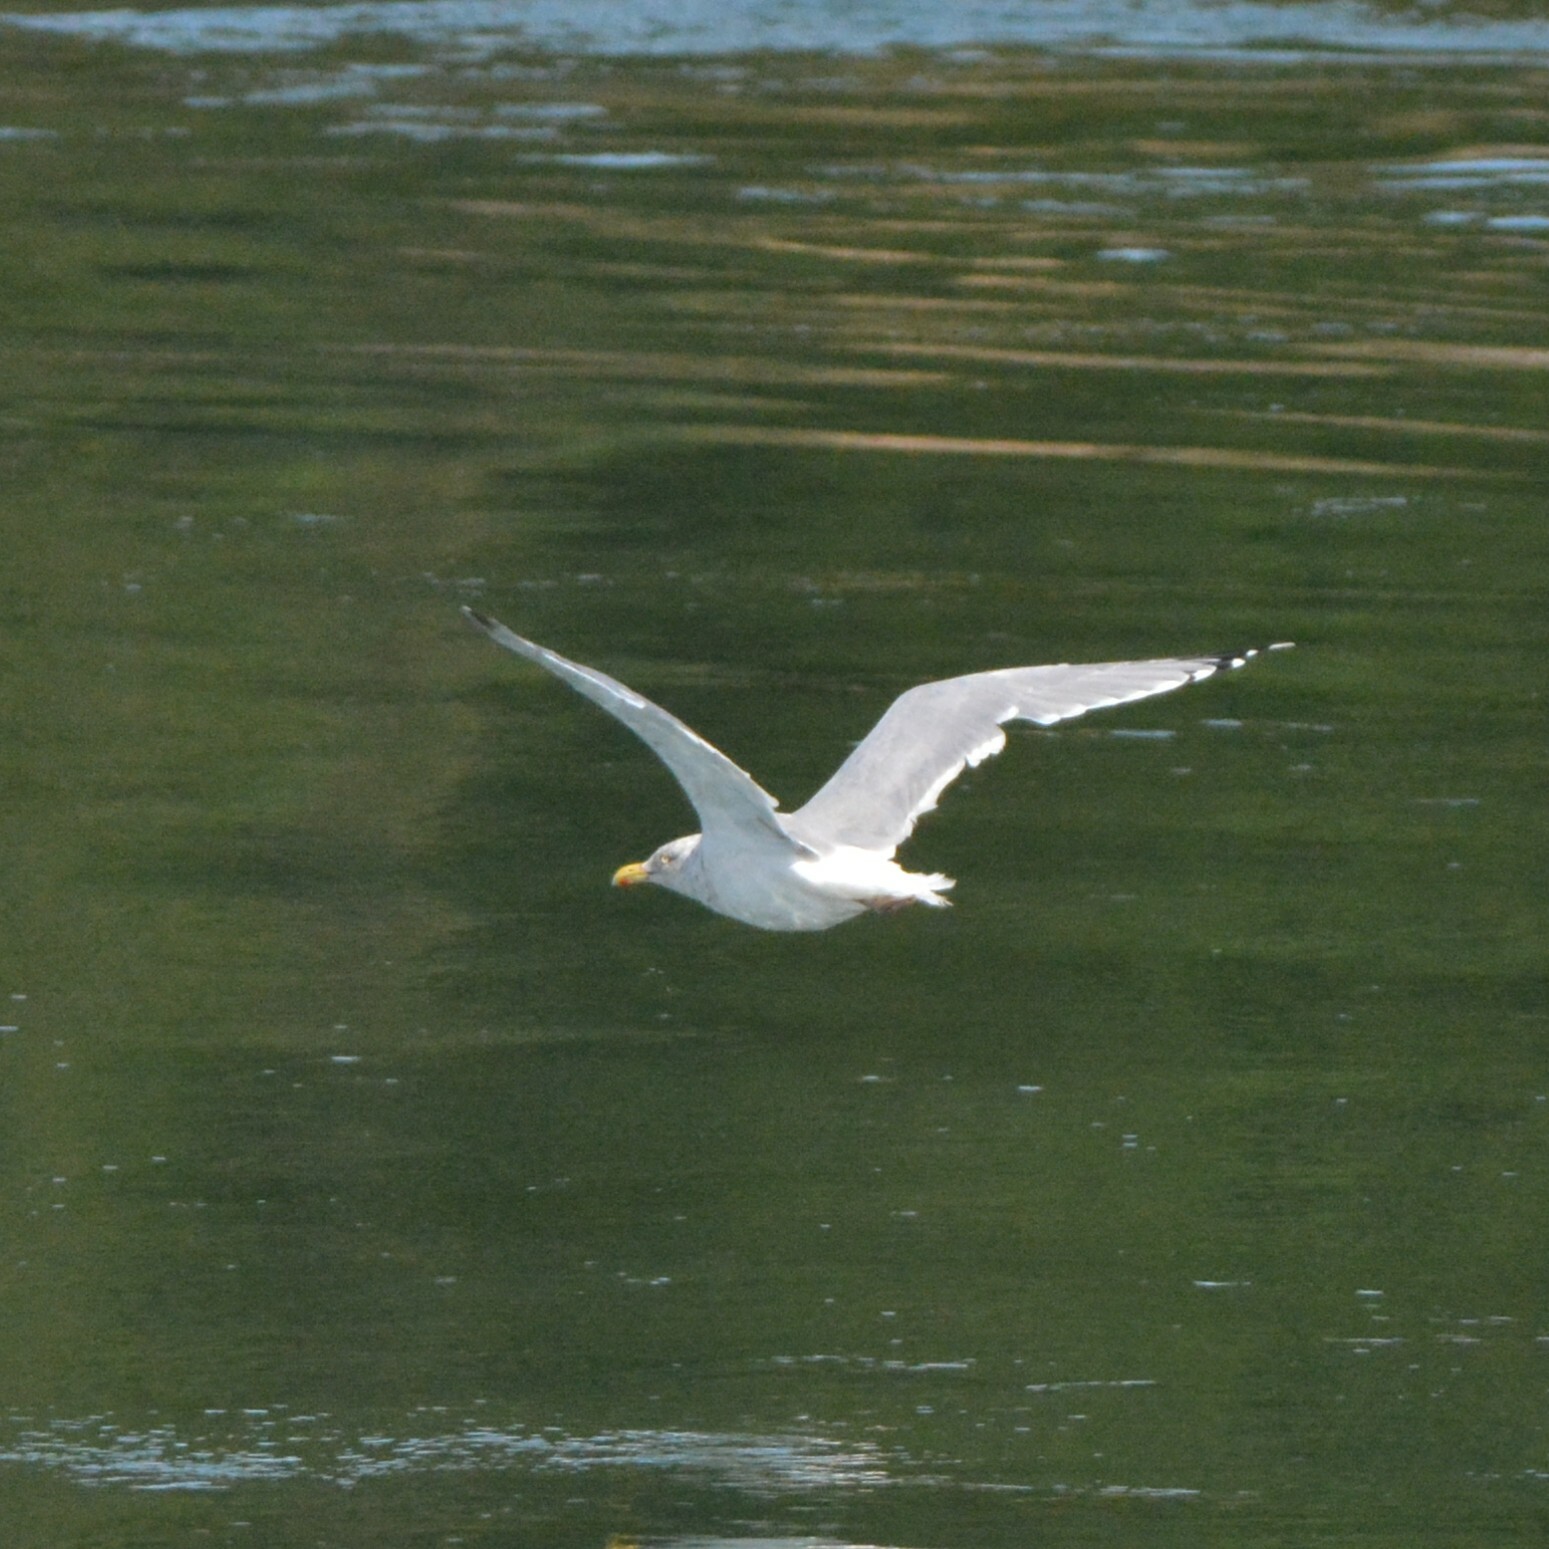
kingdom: Animalia
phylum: Chordata
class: Aves
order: Charadriiformes
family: Laridae
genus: Larus
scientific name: Larus argentatus
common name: Herring gull
